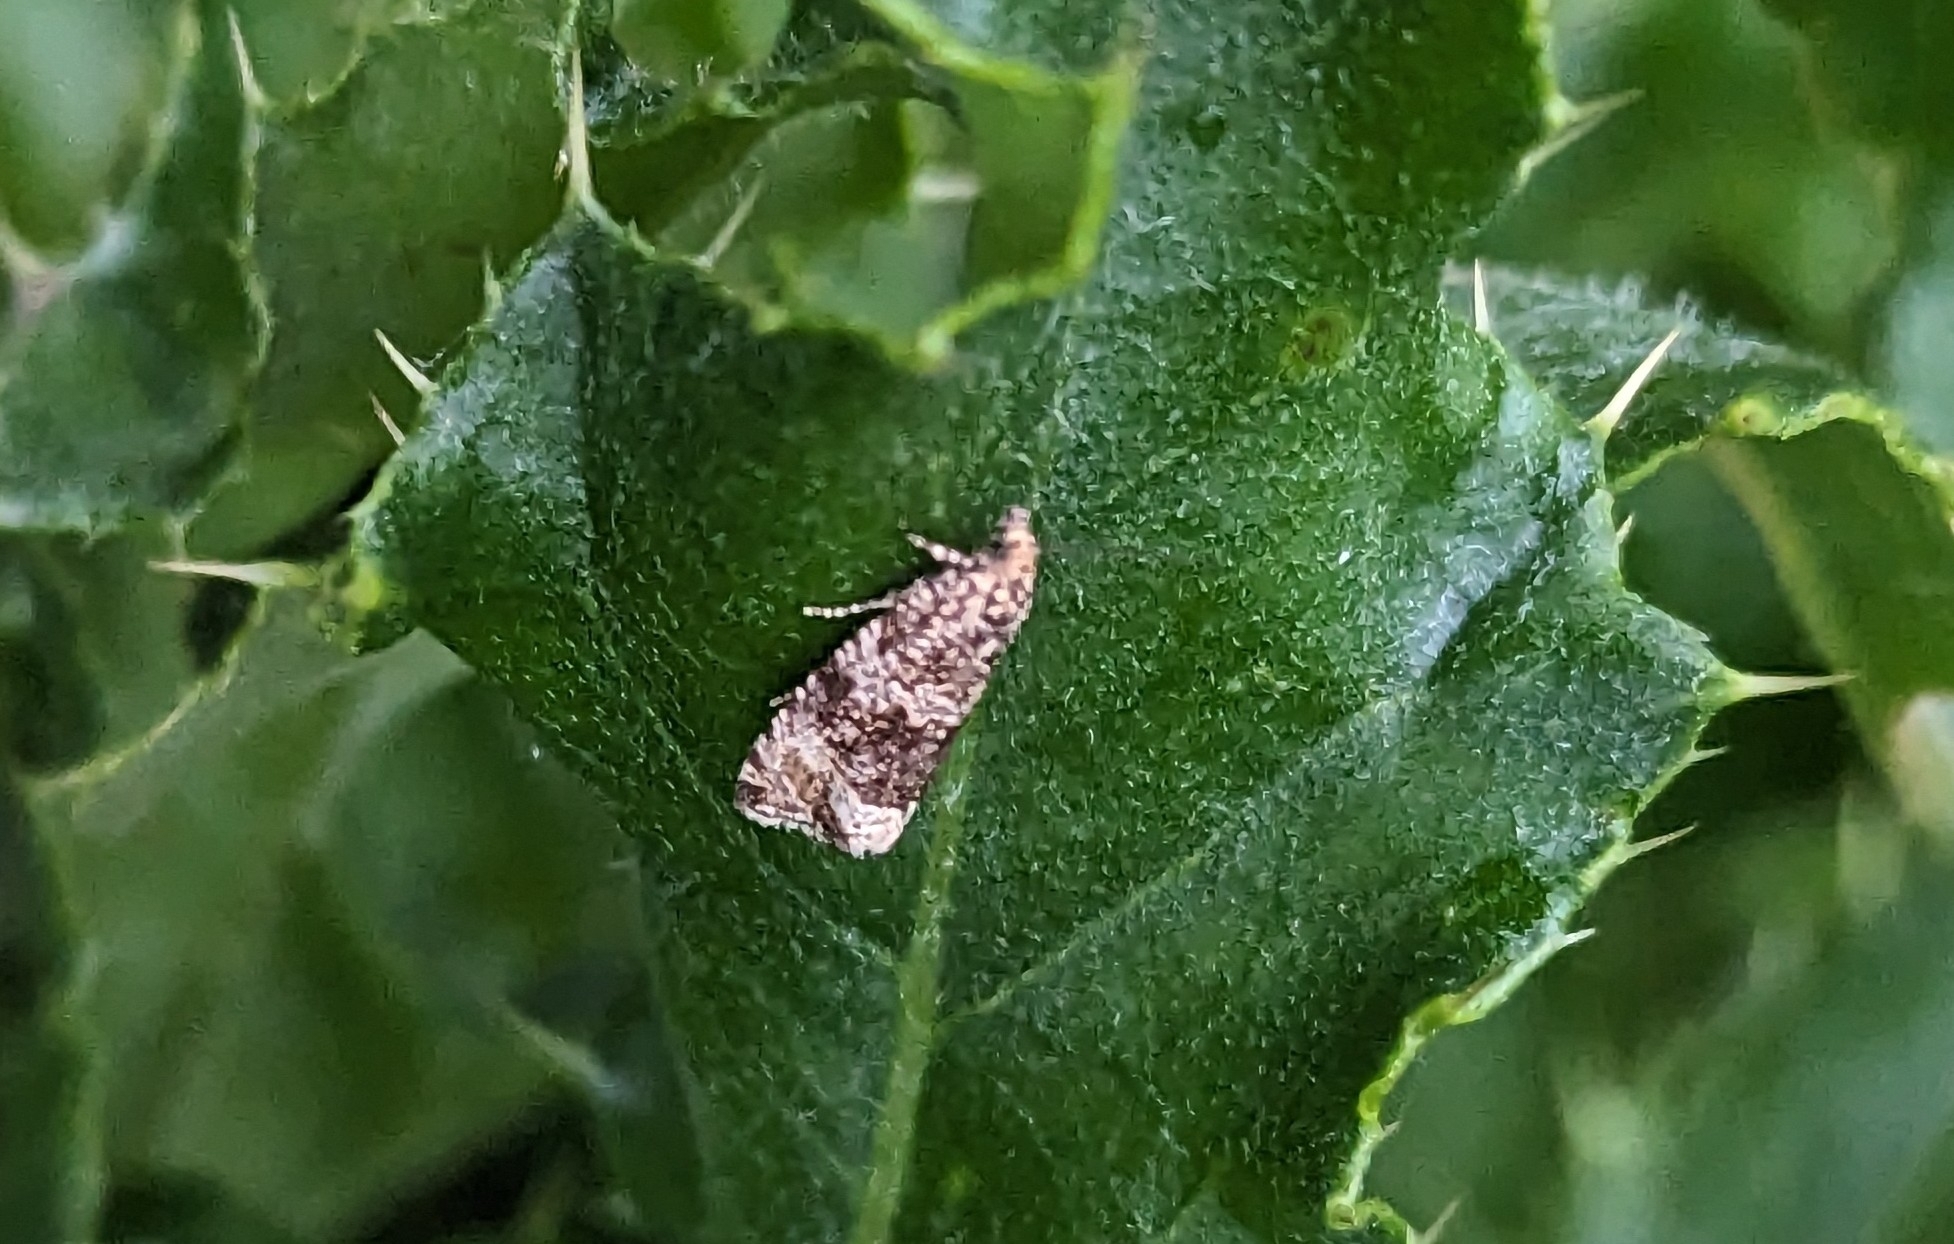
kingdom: Animalia
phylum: Arthropoda
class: Insecta
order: Lepidoptera
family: Tortricidae
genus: Syricoris
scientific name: Syricoris lacunana
